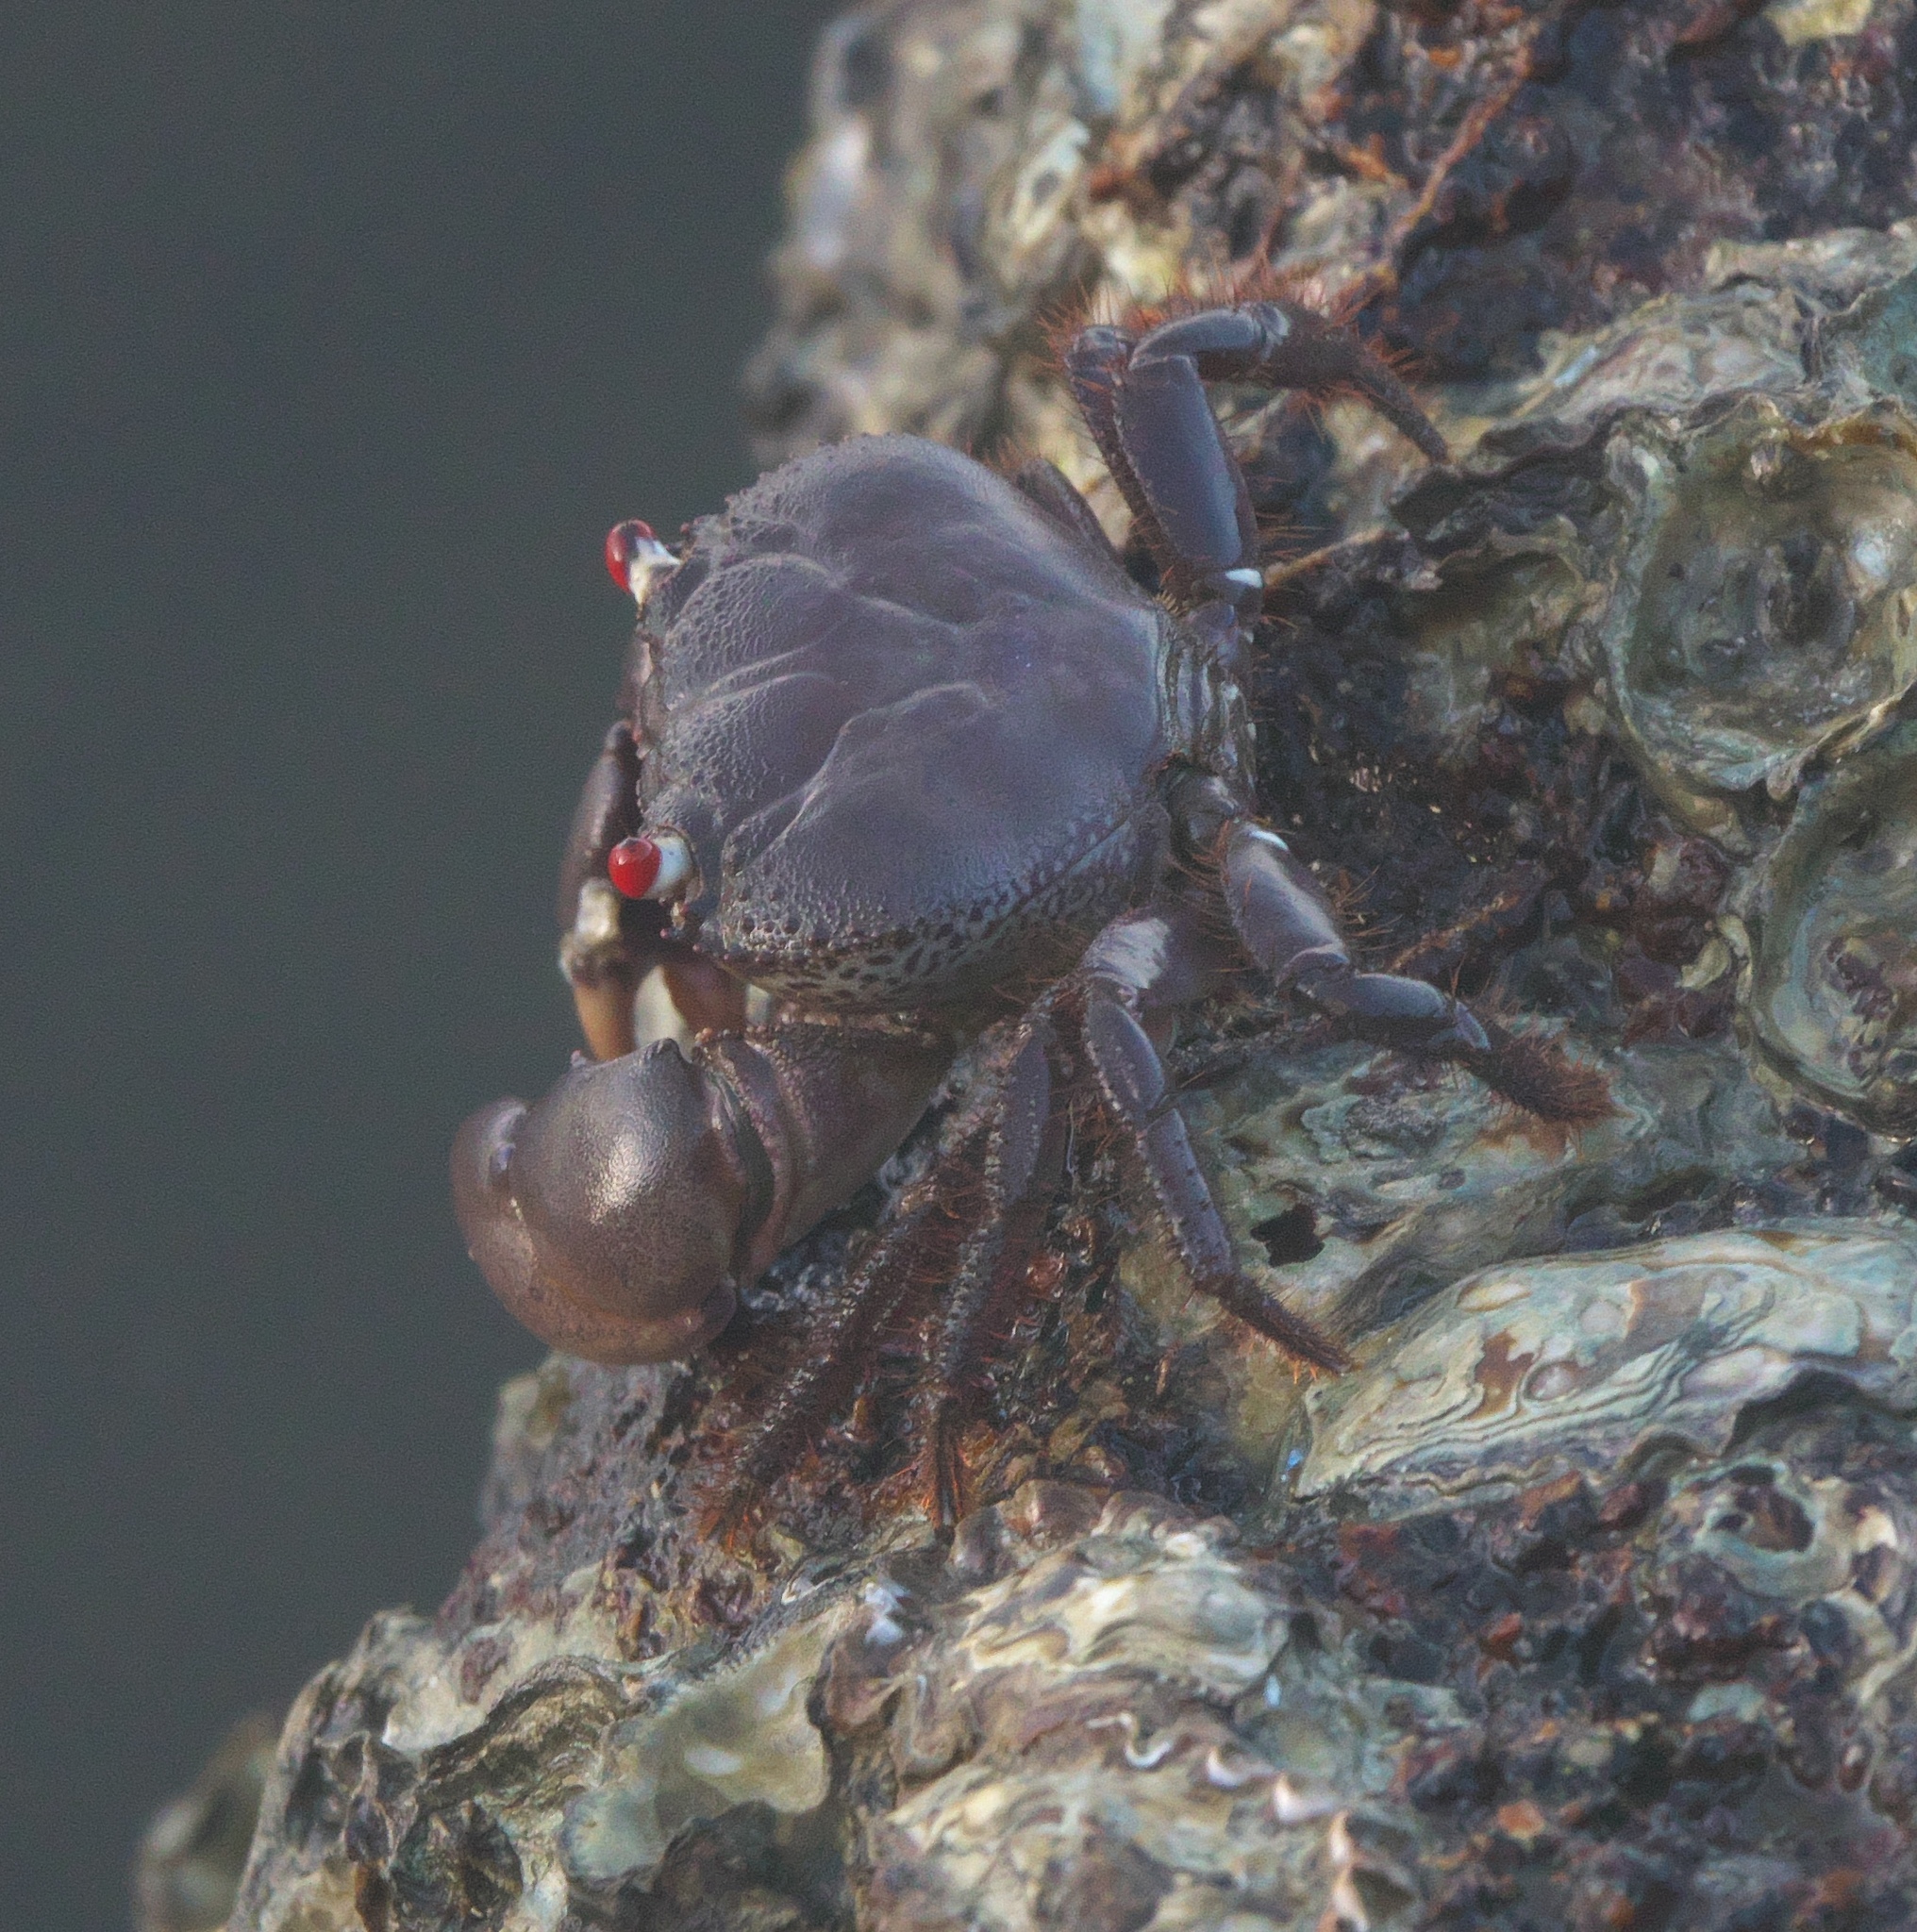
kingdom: Animalia
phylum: Arthropoda
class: Malacostraca
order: Decapoda
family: Eriphiidae
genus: Eriphia
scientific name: Eriphia sebana
